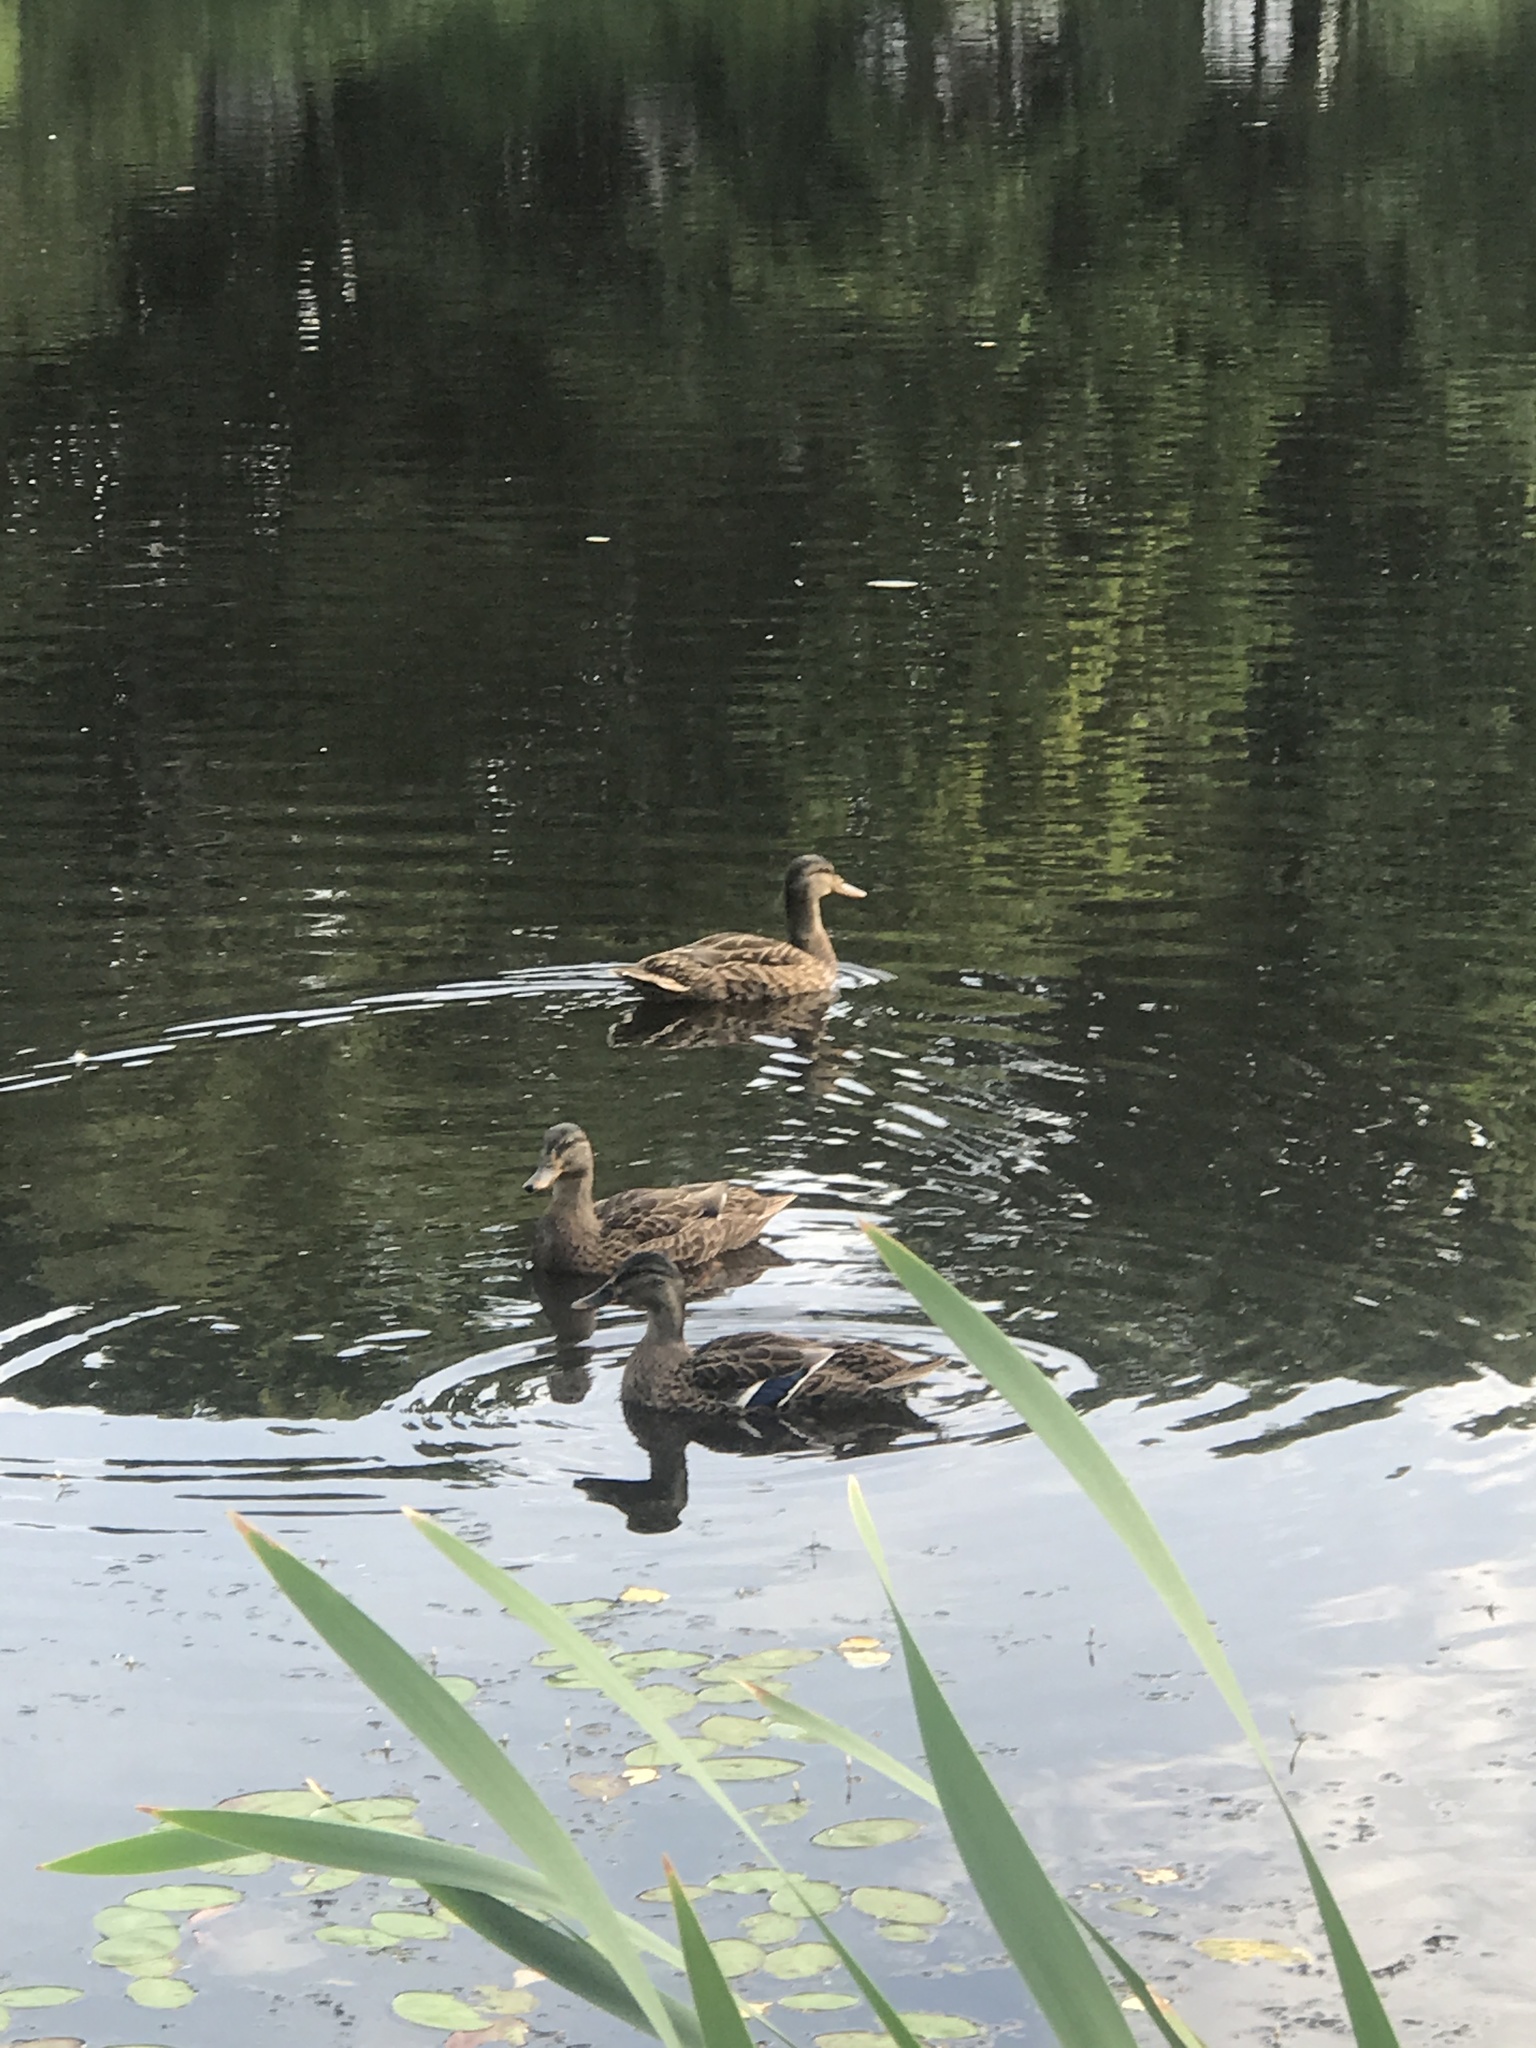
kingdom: Animalia
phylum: Chordata
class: Aves
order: Anseriformes
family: Anatidae
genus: Anas
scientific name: Anas platyrhynchos
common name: Mallard
